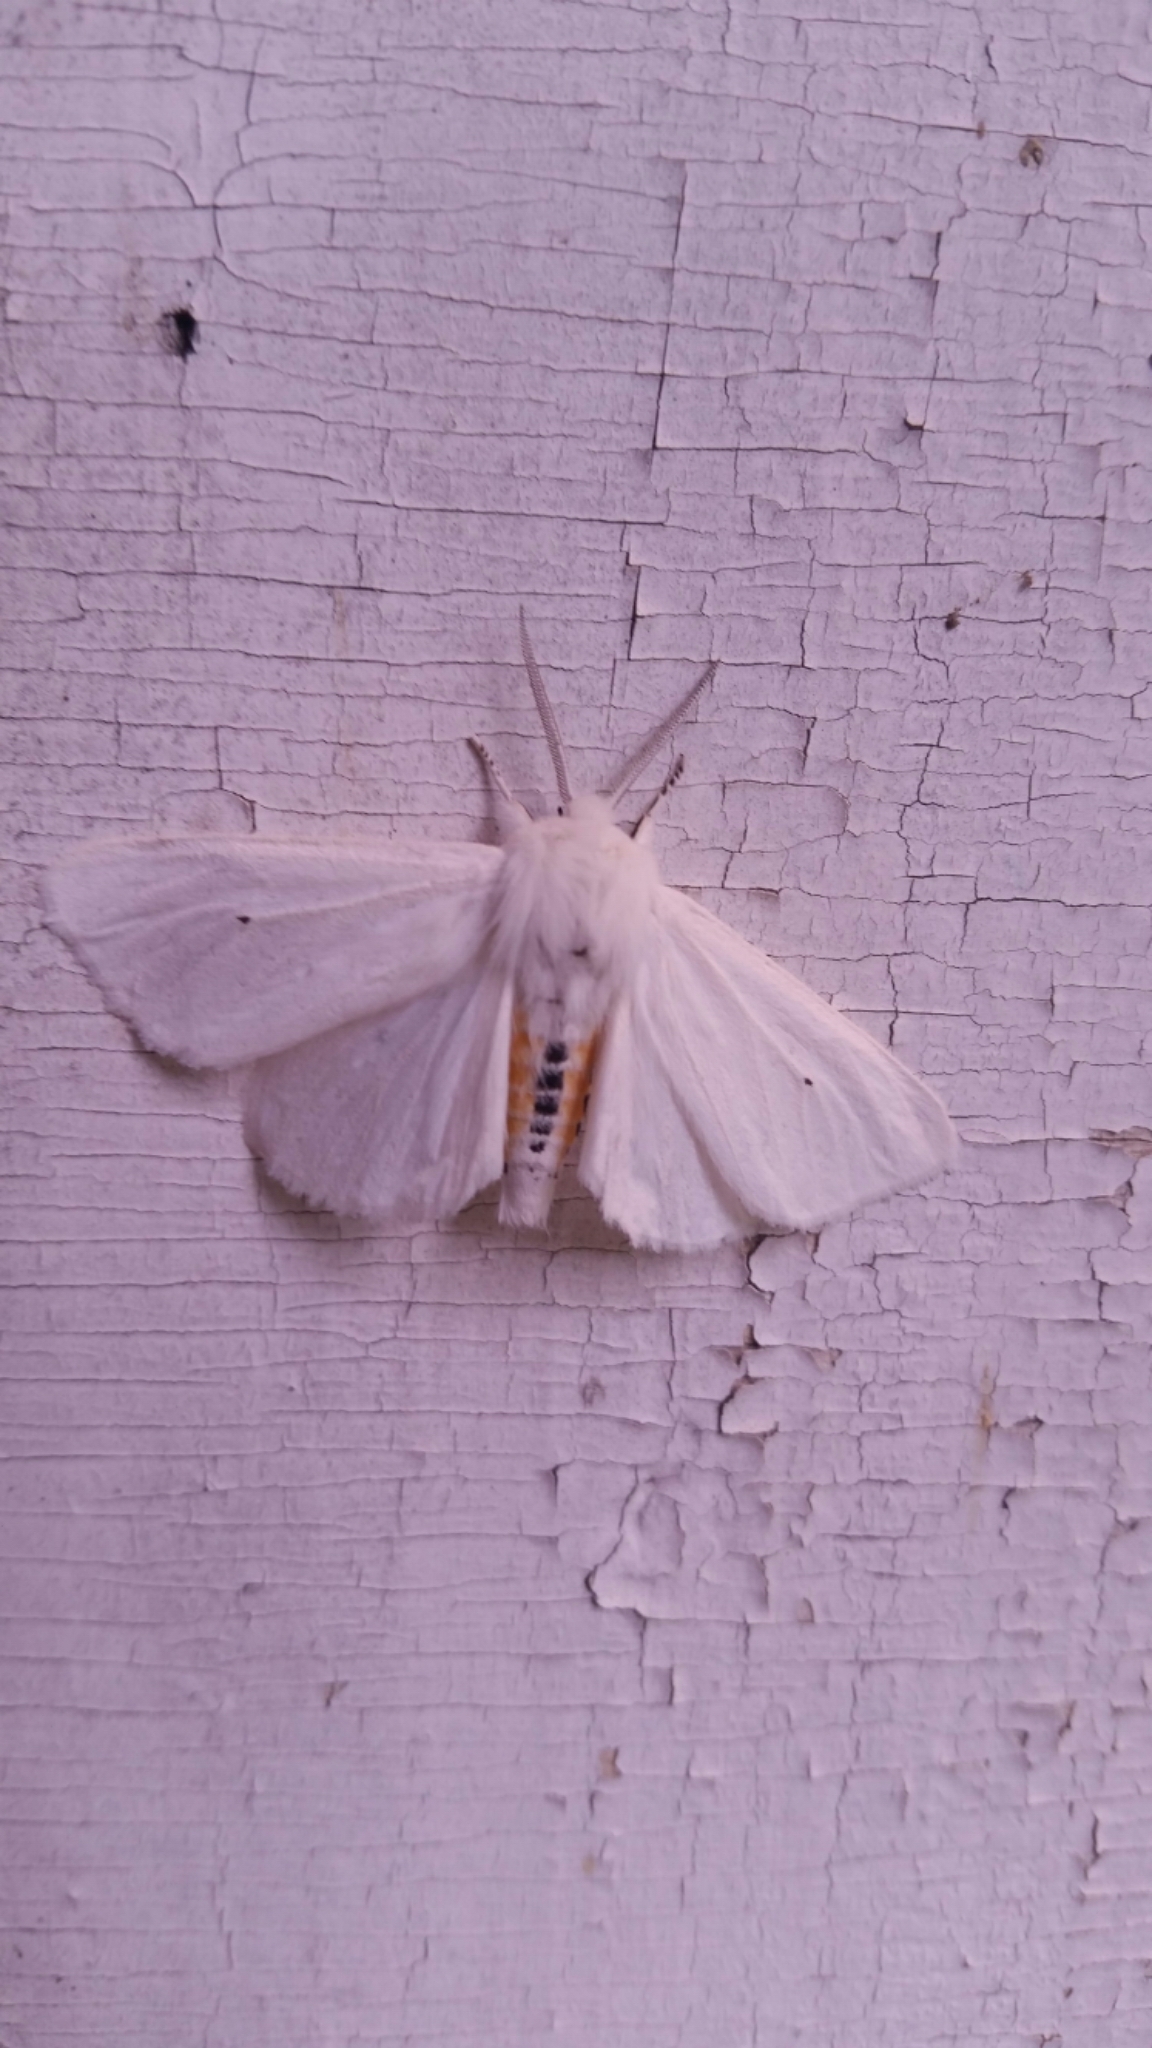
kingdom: Animalia
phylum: Arthropoda
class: Insecta
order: Lepidoptera
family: Erebidae
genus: Spilosoma
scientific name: Spilosoma virginica
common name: Virginia tiger moth
